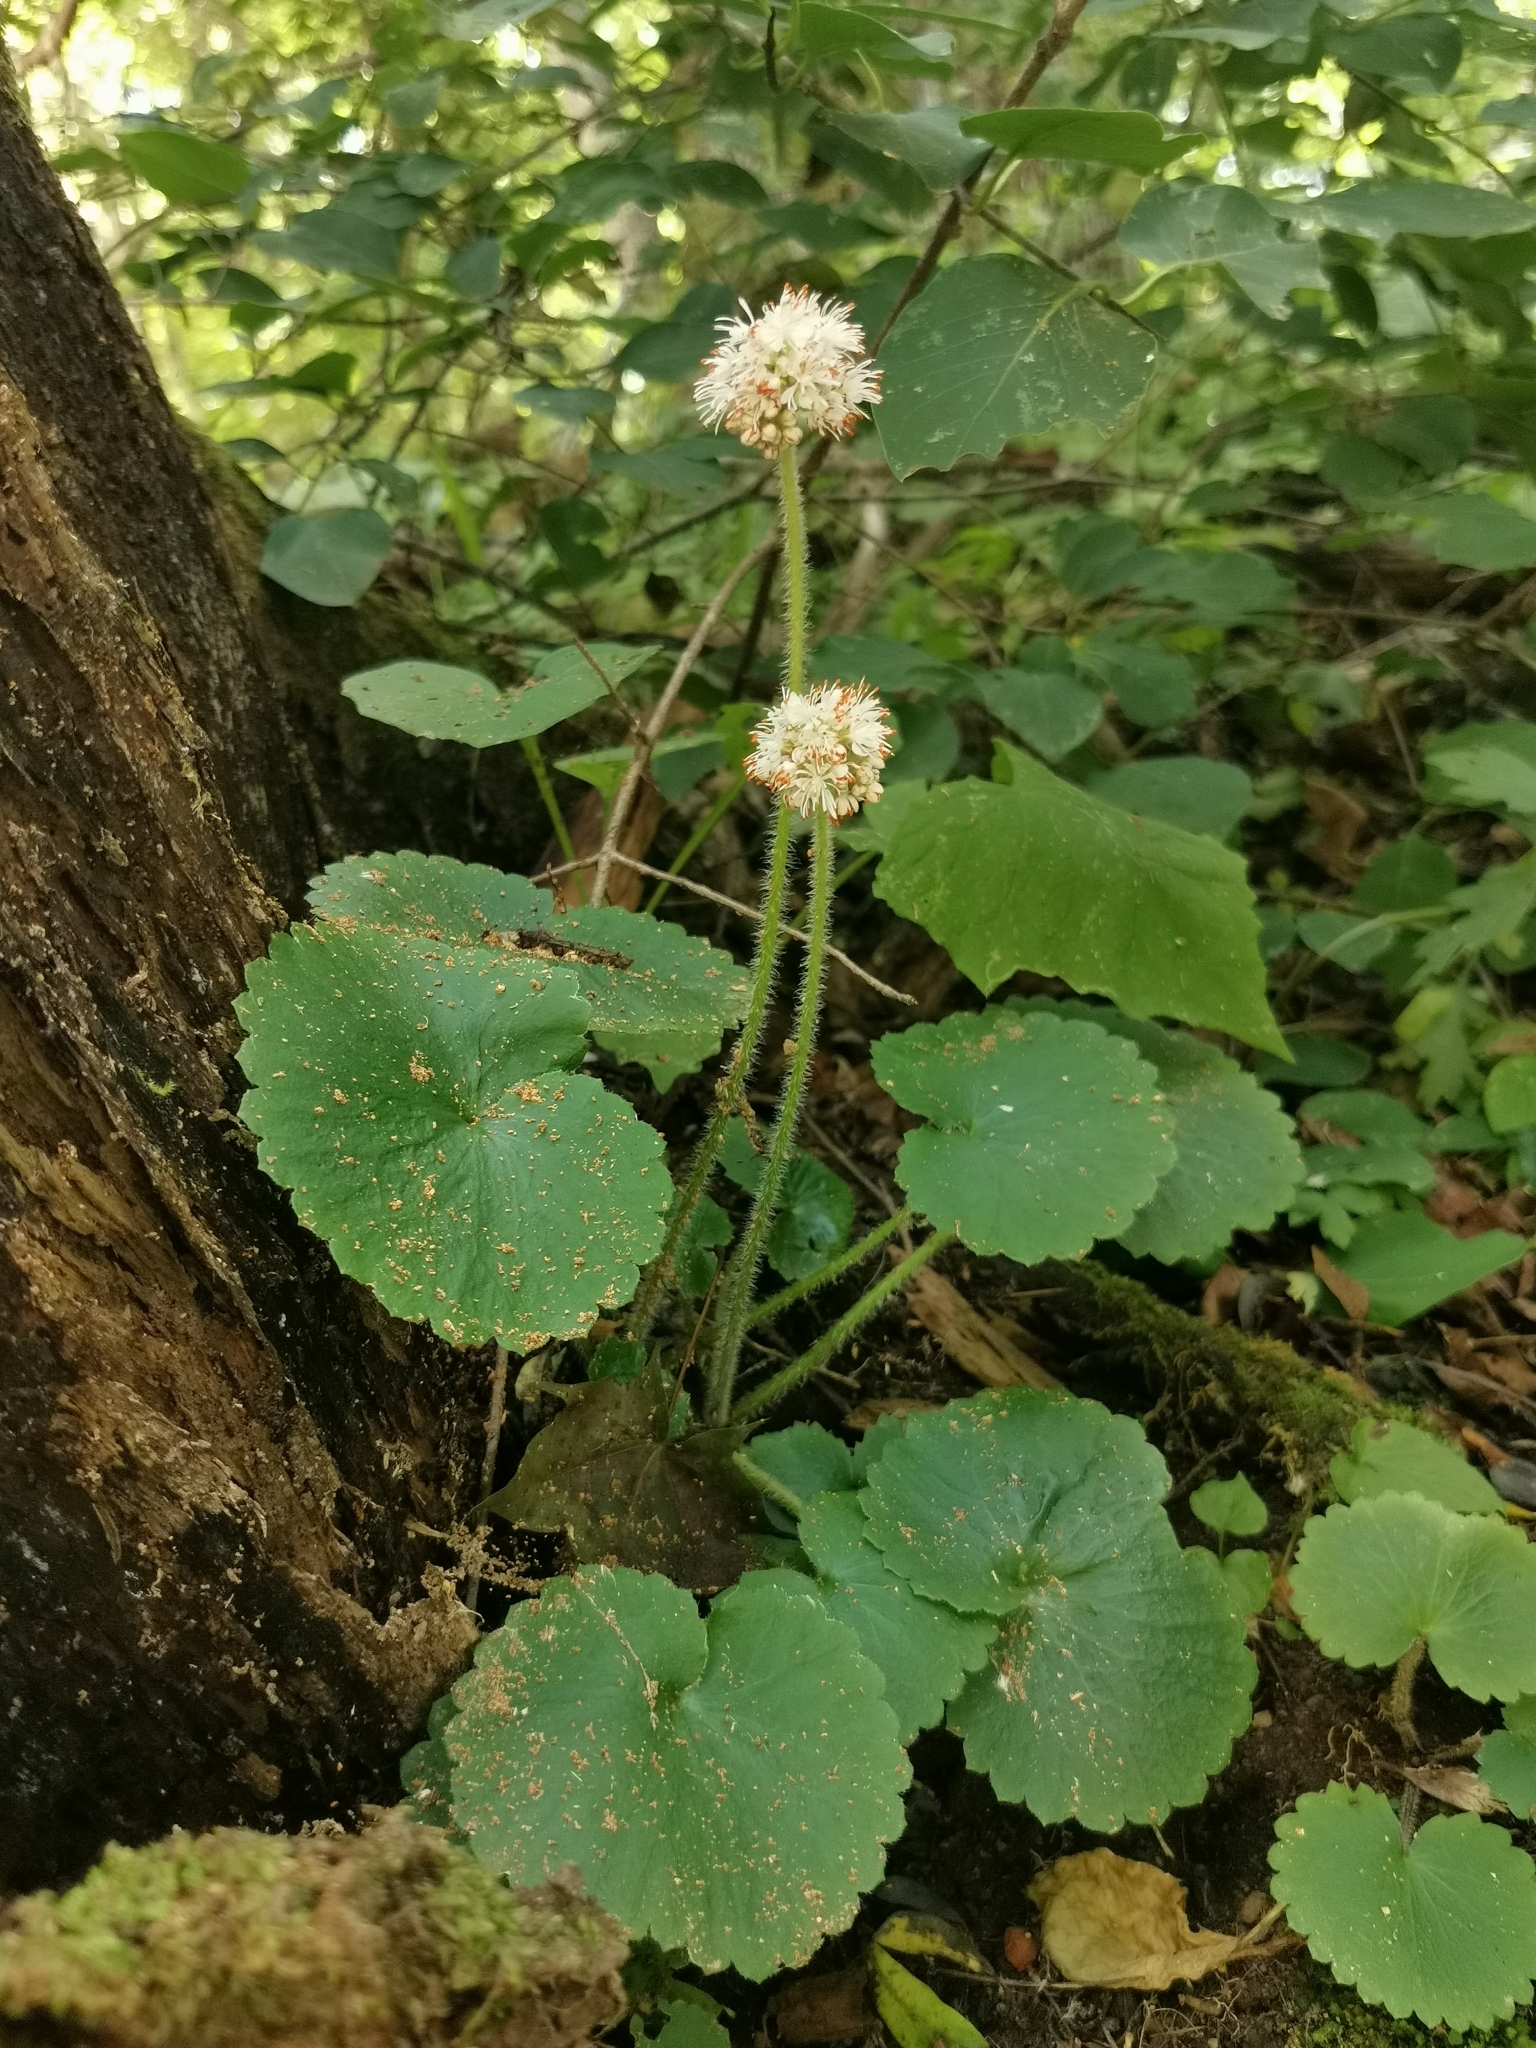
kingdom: Plantae
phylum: Tracheophyta
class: Magnoliopsida
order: Saxifragales
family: Saxifragaceae
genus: Micranthes
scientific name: Micranthes manchuriensis
